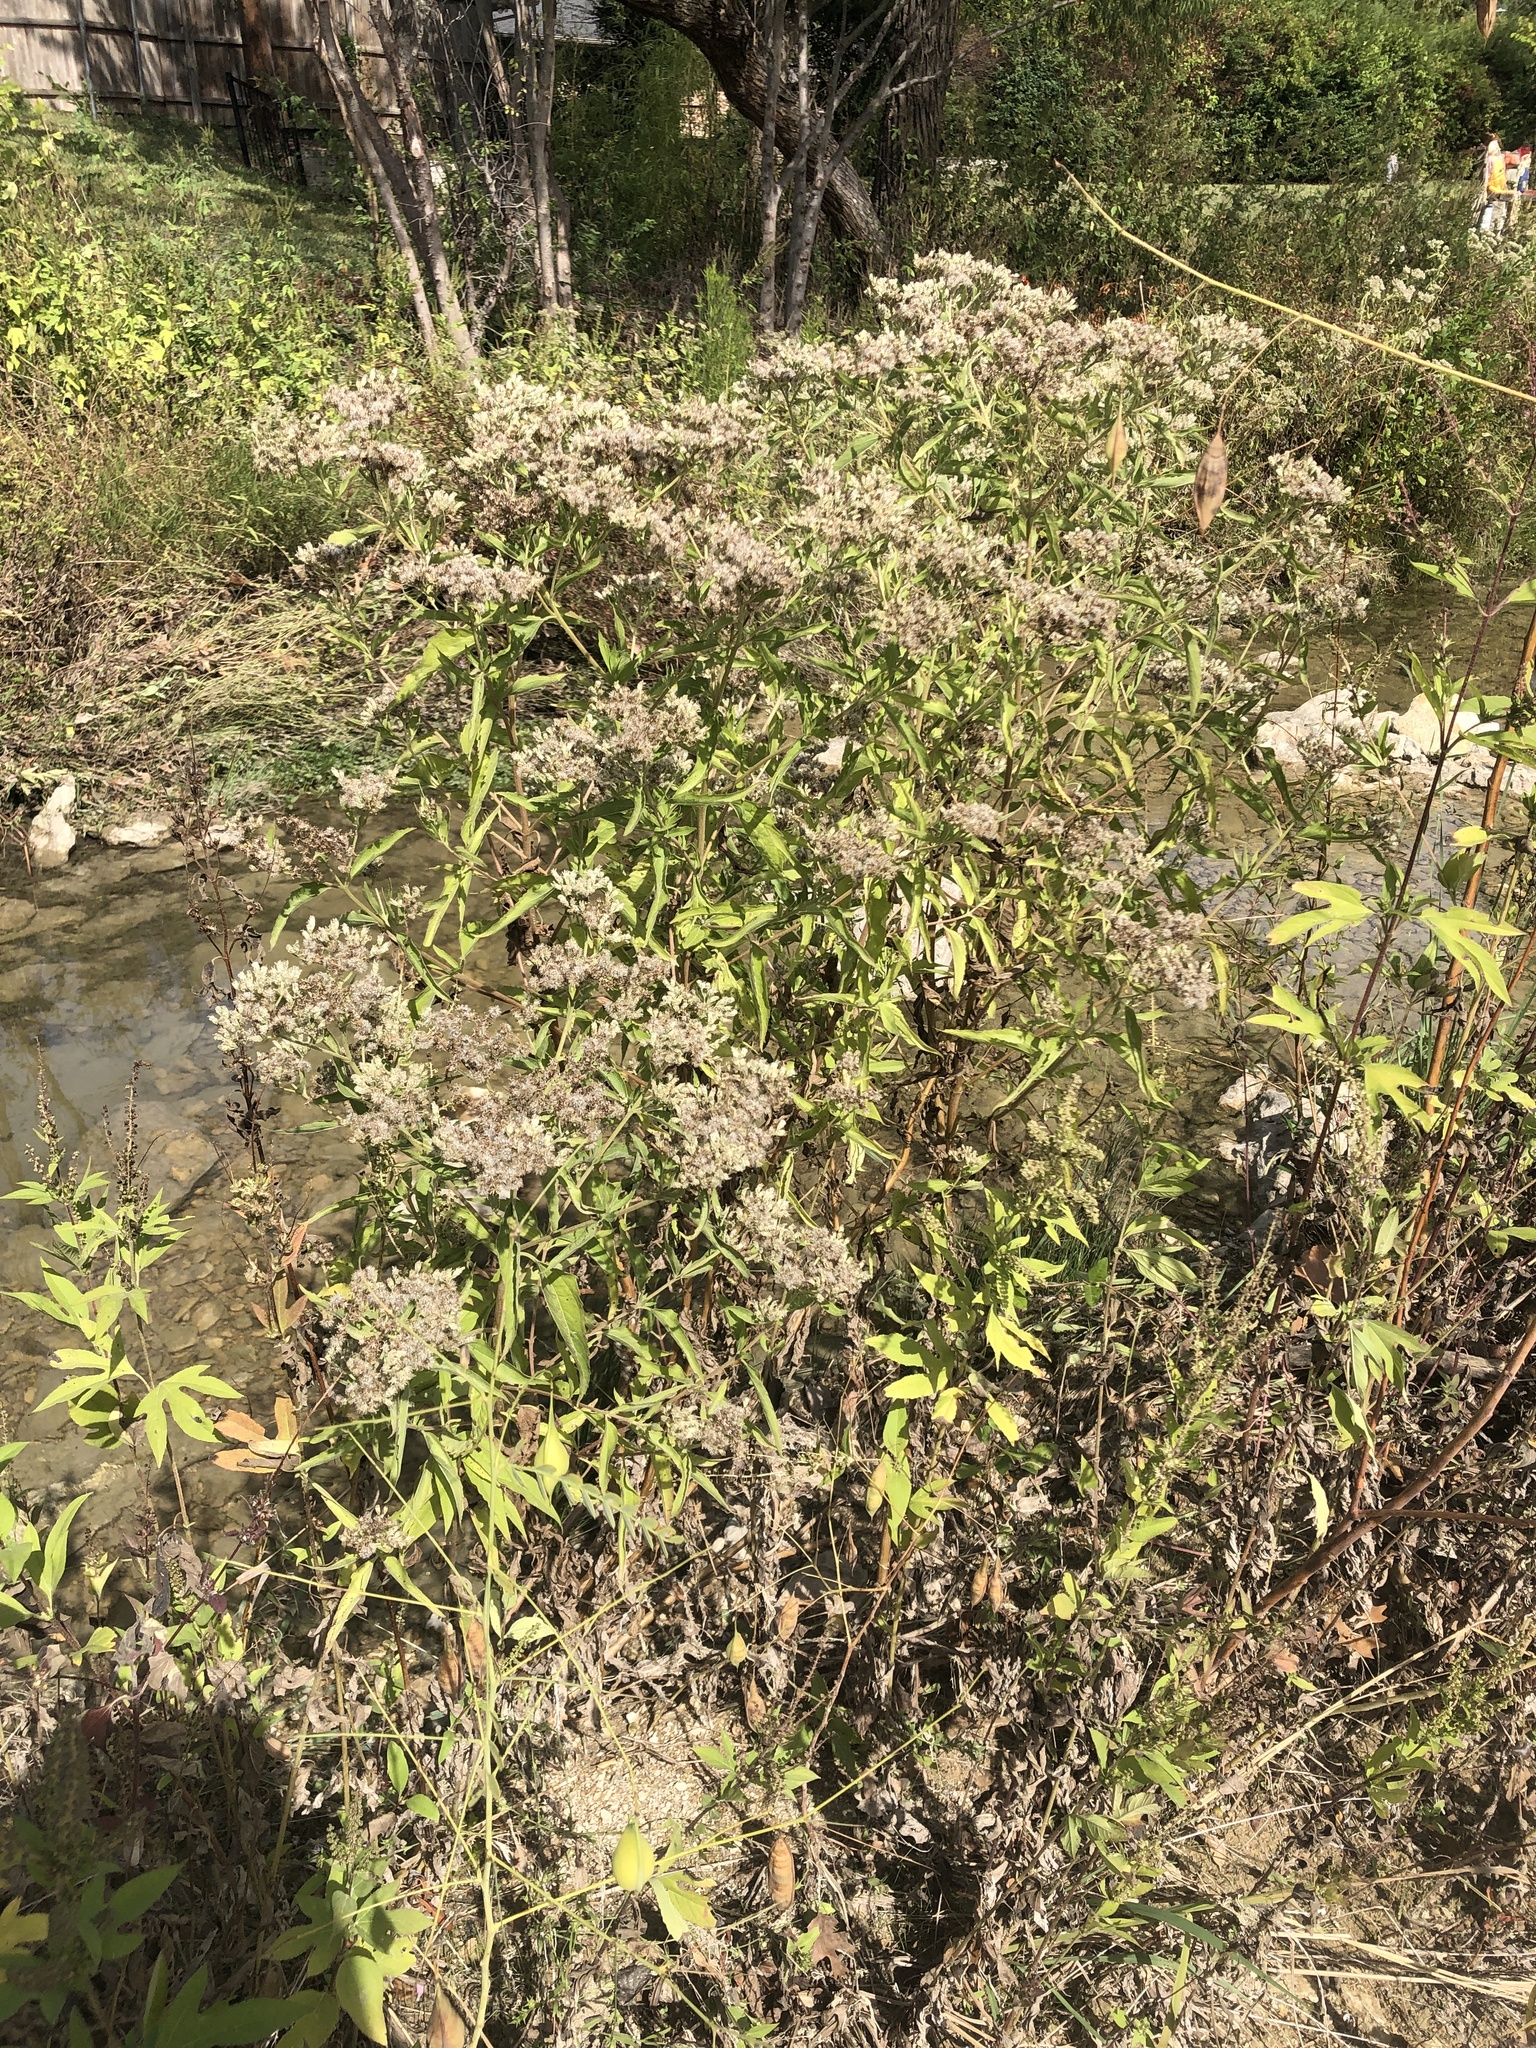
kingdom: Plantae
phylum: Tracheophyta
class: Magnoliopsida
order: Asterales
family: Asteraceae
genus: Eupatorium
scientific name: Eupatorium serotinum
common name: Late boneset
